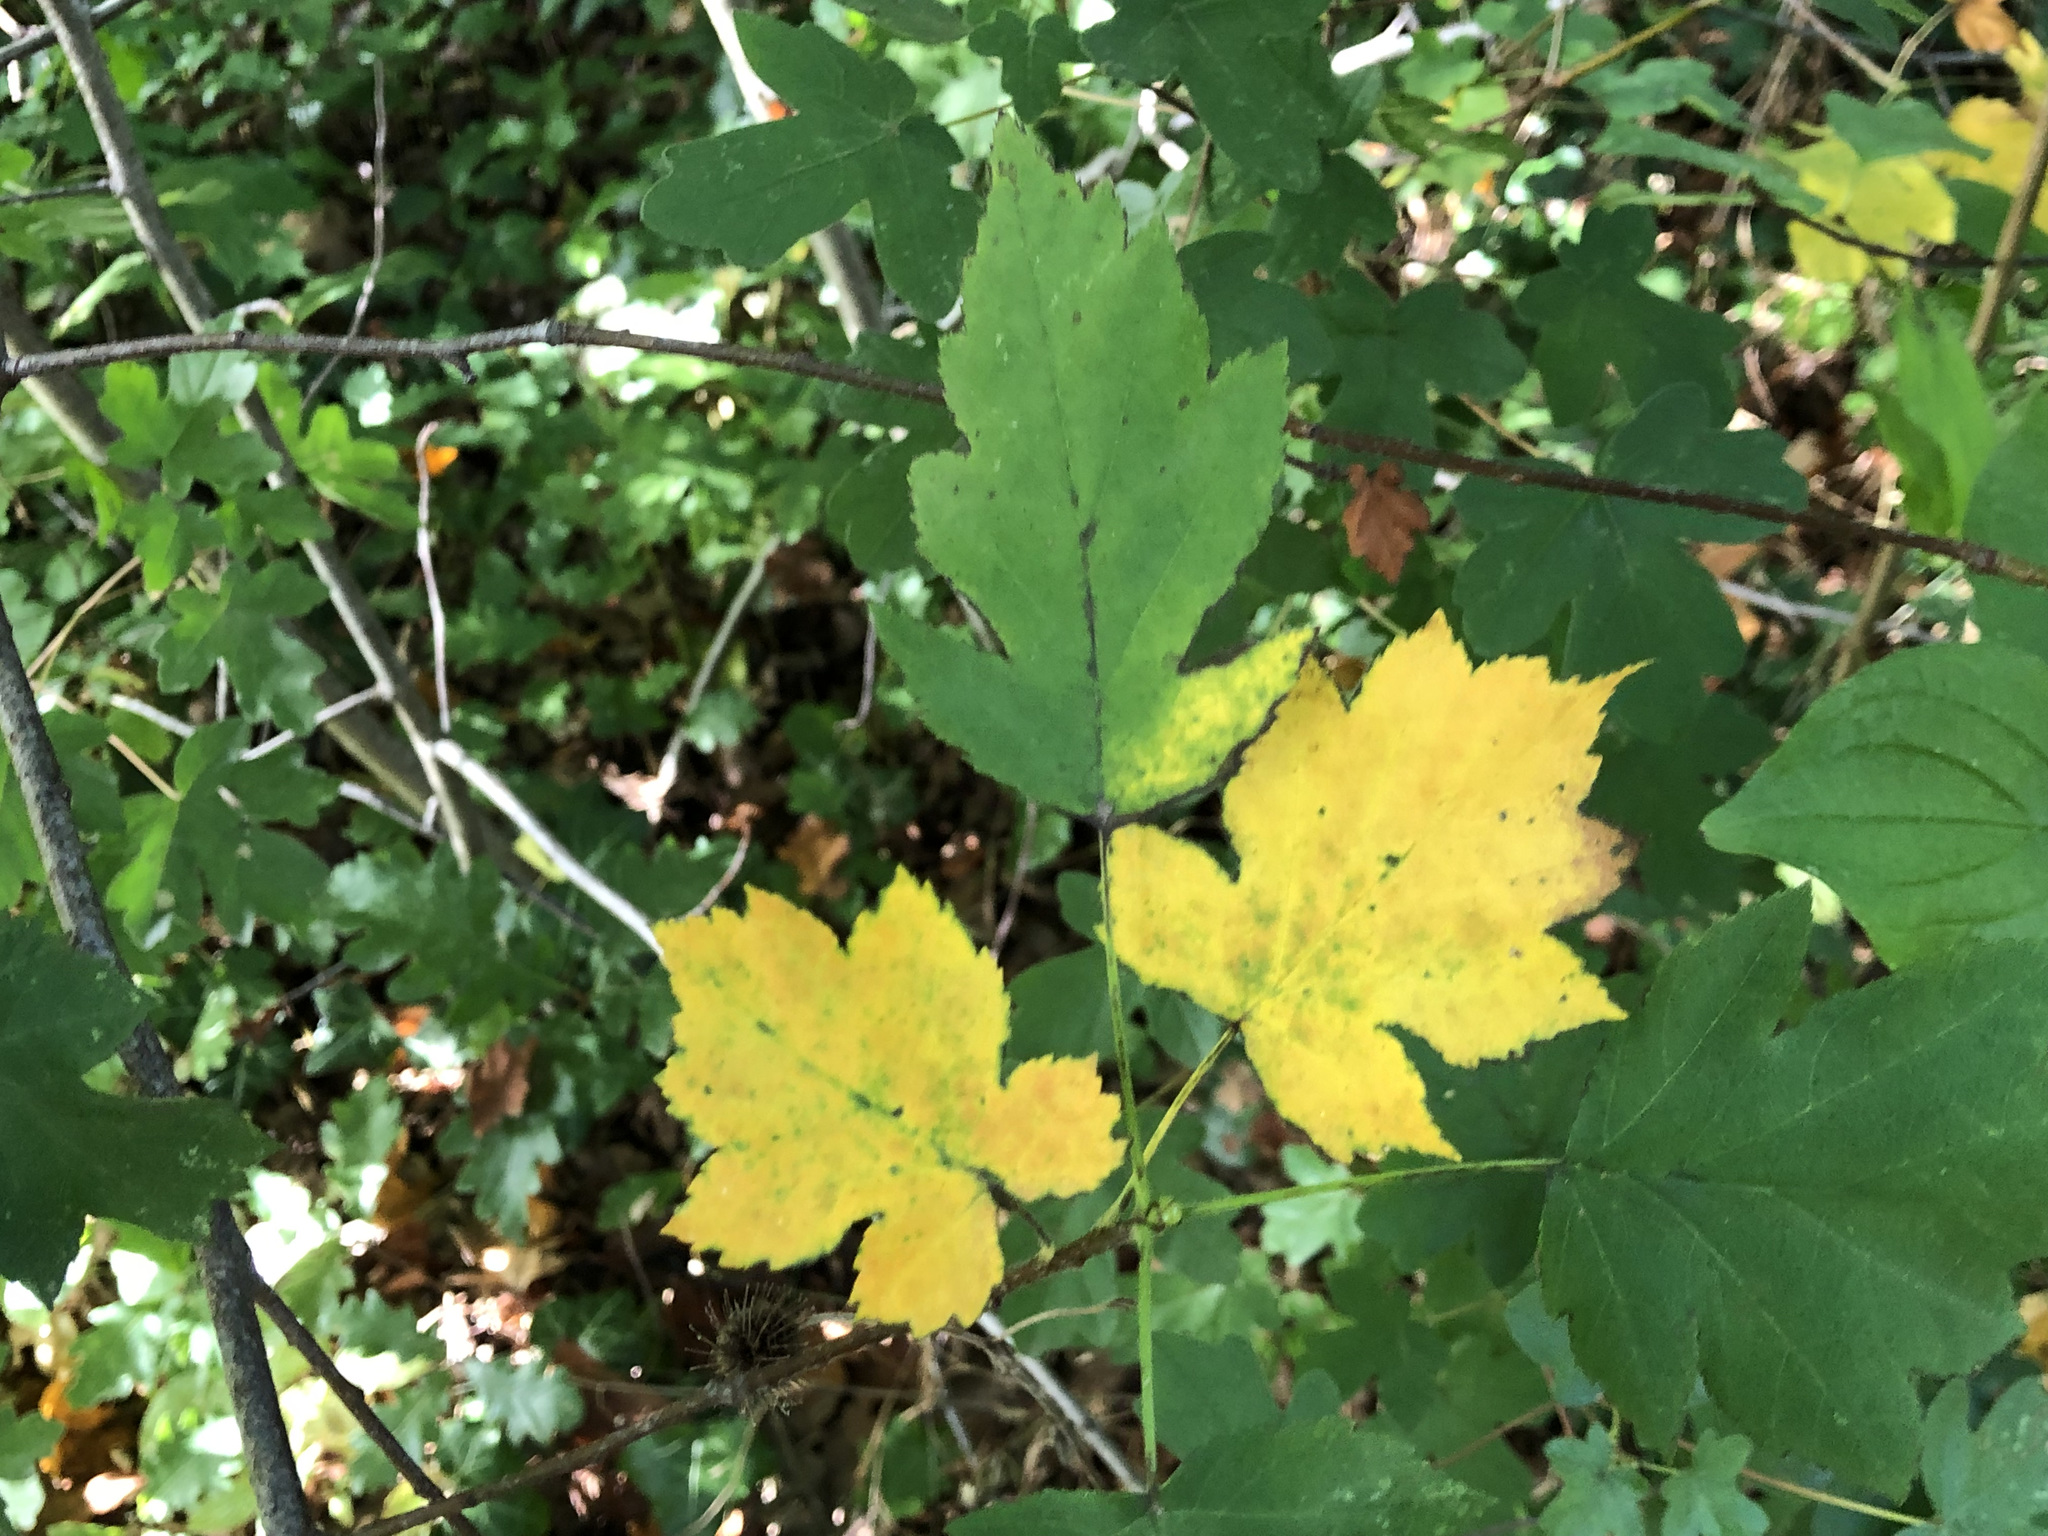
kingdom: Plantae
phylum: Tracheophyta
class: Magnoliopsida
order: Rosales
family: Rosaceae
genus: Torminalis
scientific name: Torminalis glaberrima
